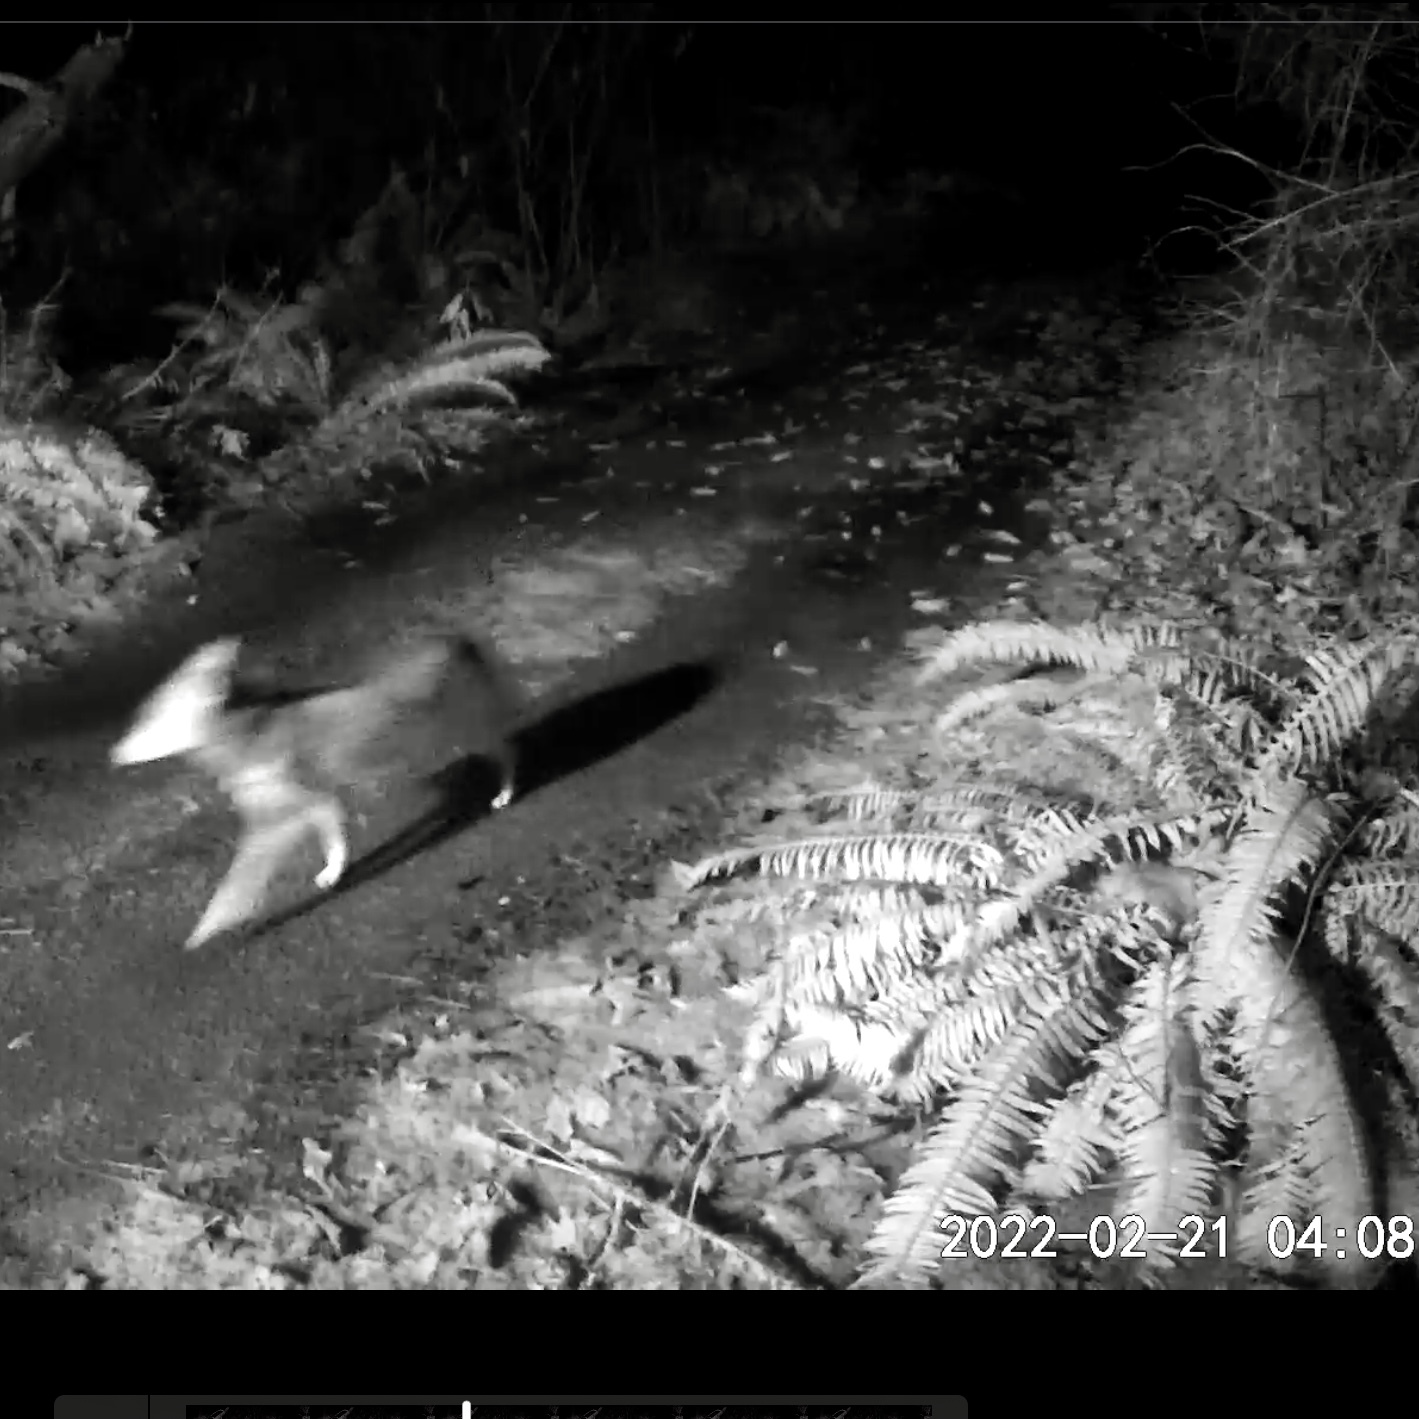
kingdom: Animalia
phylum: Chordata
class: Mammalia
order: Carnivora
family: Canidae
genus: Canis
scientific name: Canis latrans
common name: Coyote
